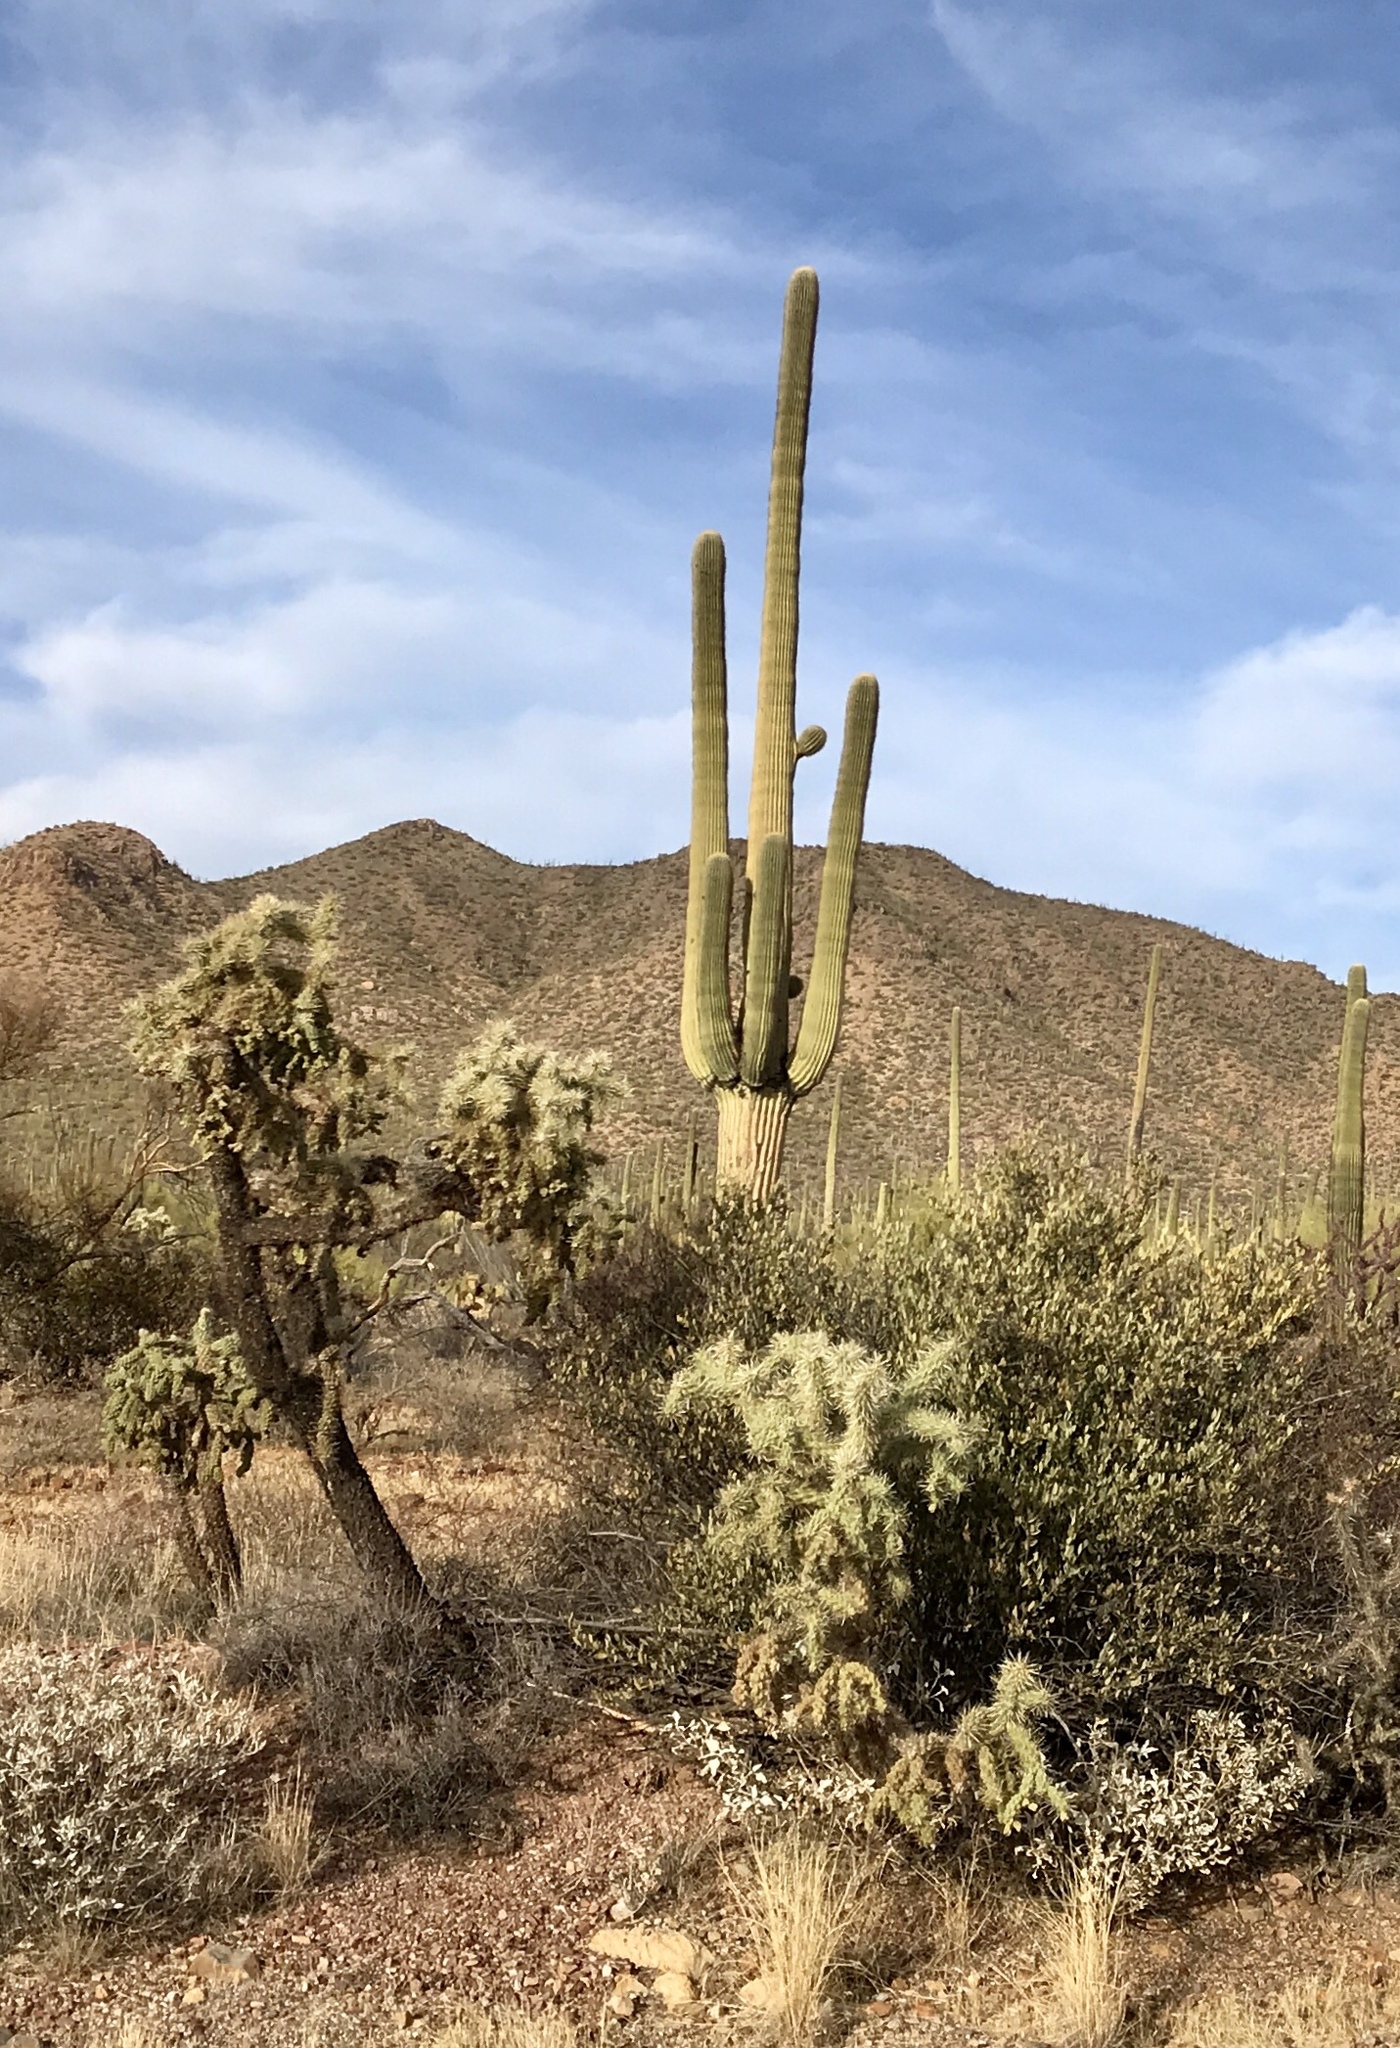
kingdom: Plantae
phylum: Tracheophyta
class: Magnoliopsida
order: Caryophyllales
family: Cactaceae
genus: Carnegiea
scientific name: Carnegiea gigantea
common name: Saguaro
